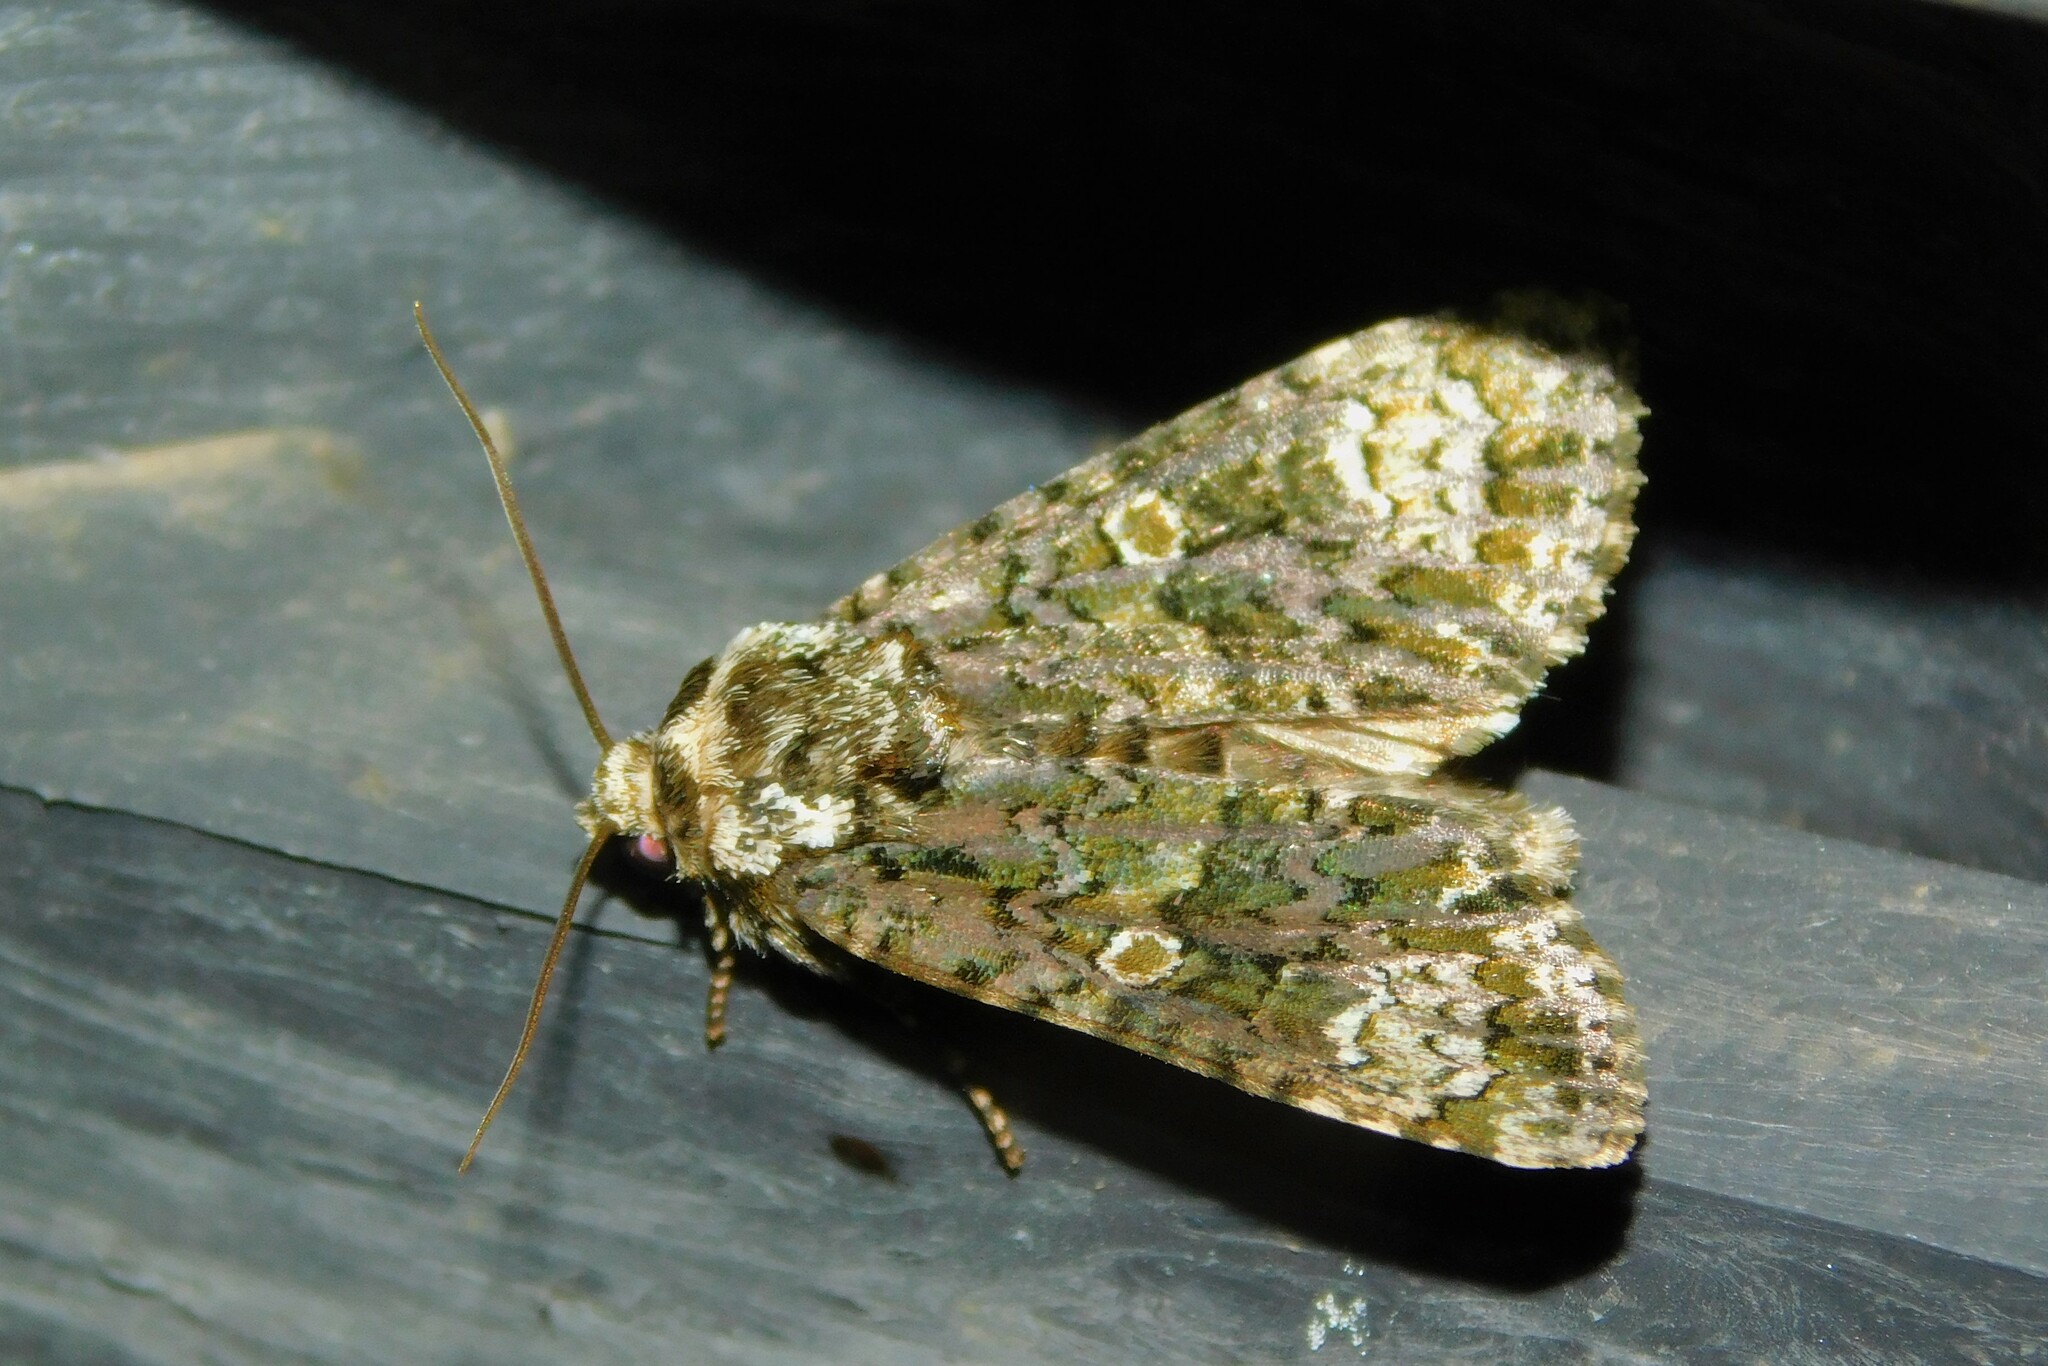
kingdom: Animalia
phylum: Arthropoda
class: Insecta
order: Lepidoptera
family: Noctuidae
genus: Craniophora
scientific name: Craniophora ligustri
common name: Coronet
